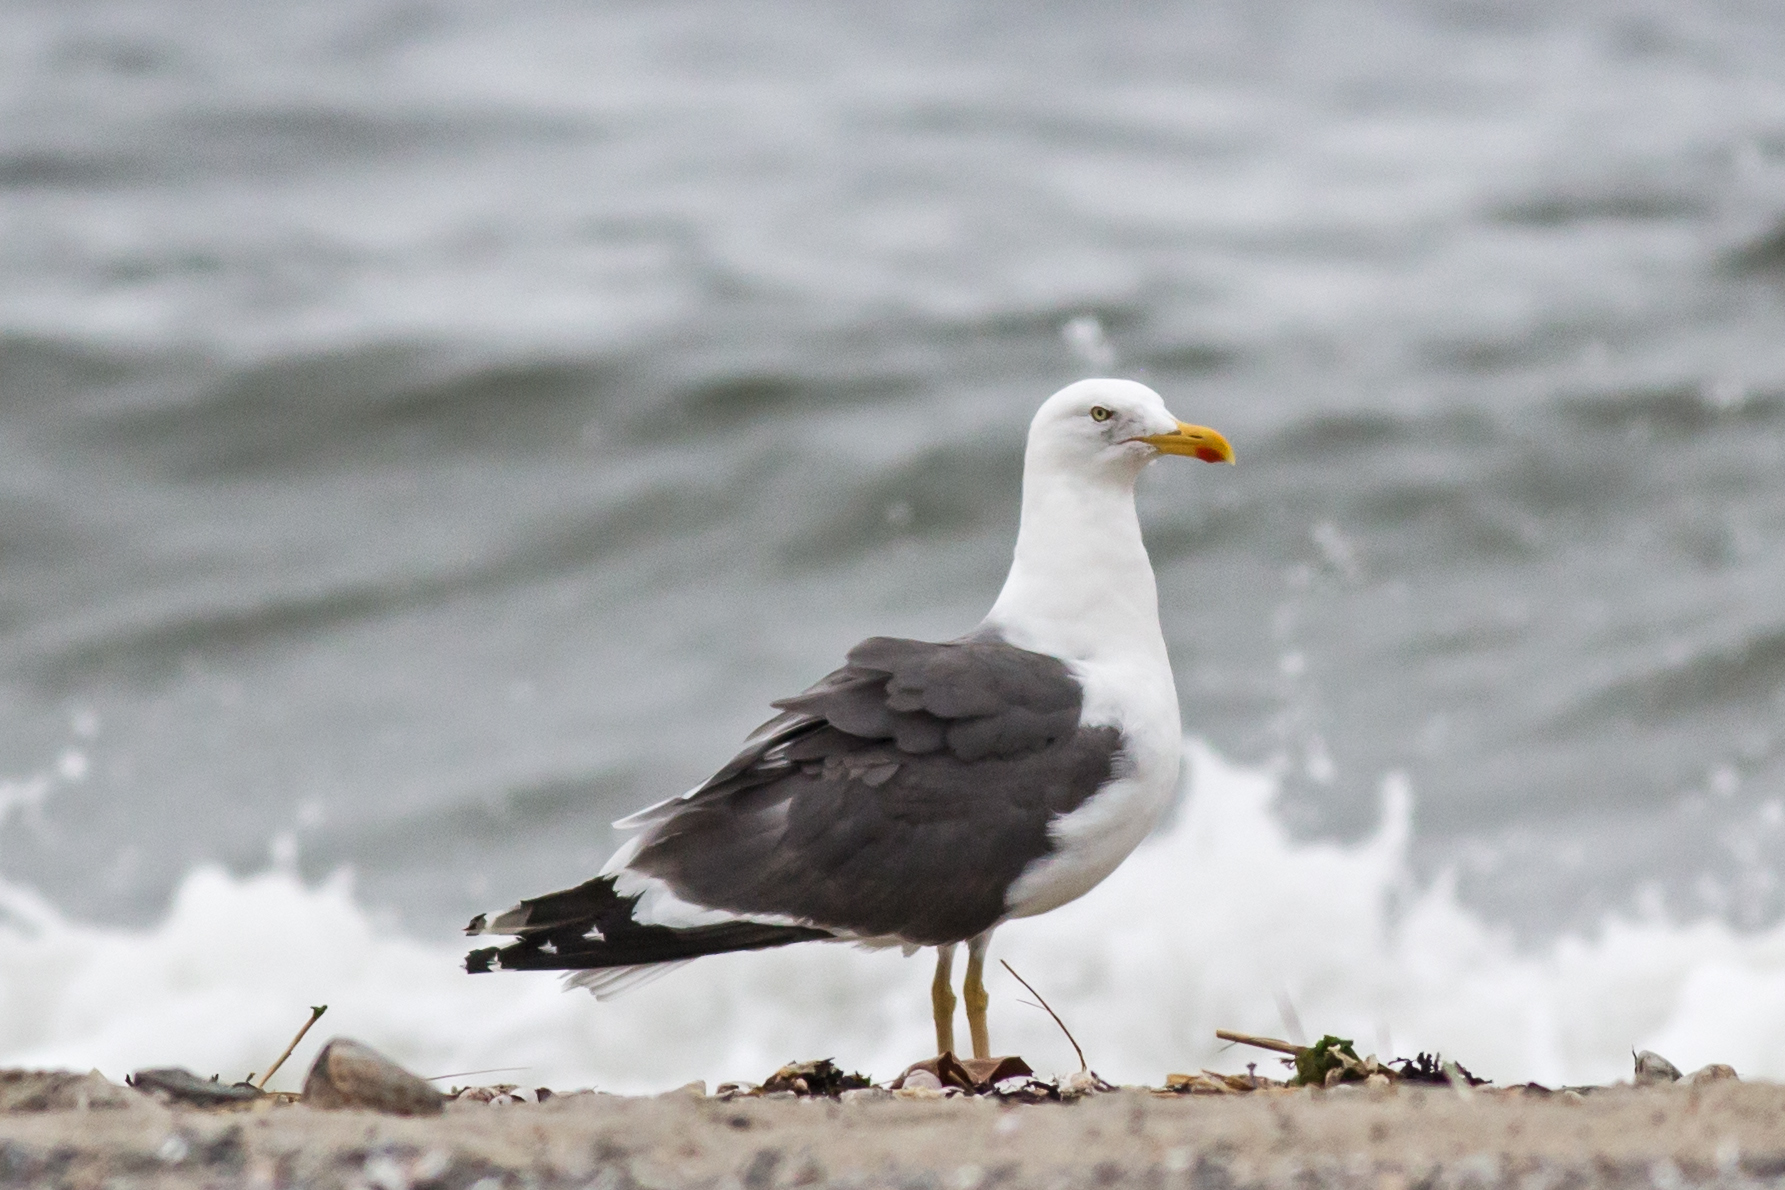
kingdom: Animalia
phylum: Chordata
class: Aves
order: Charadriiformes
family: Laridae
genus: Larus
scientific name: Larus fuscus
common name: Lesser black-backed gull
